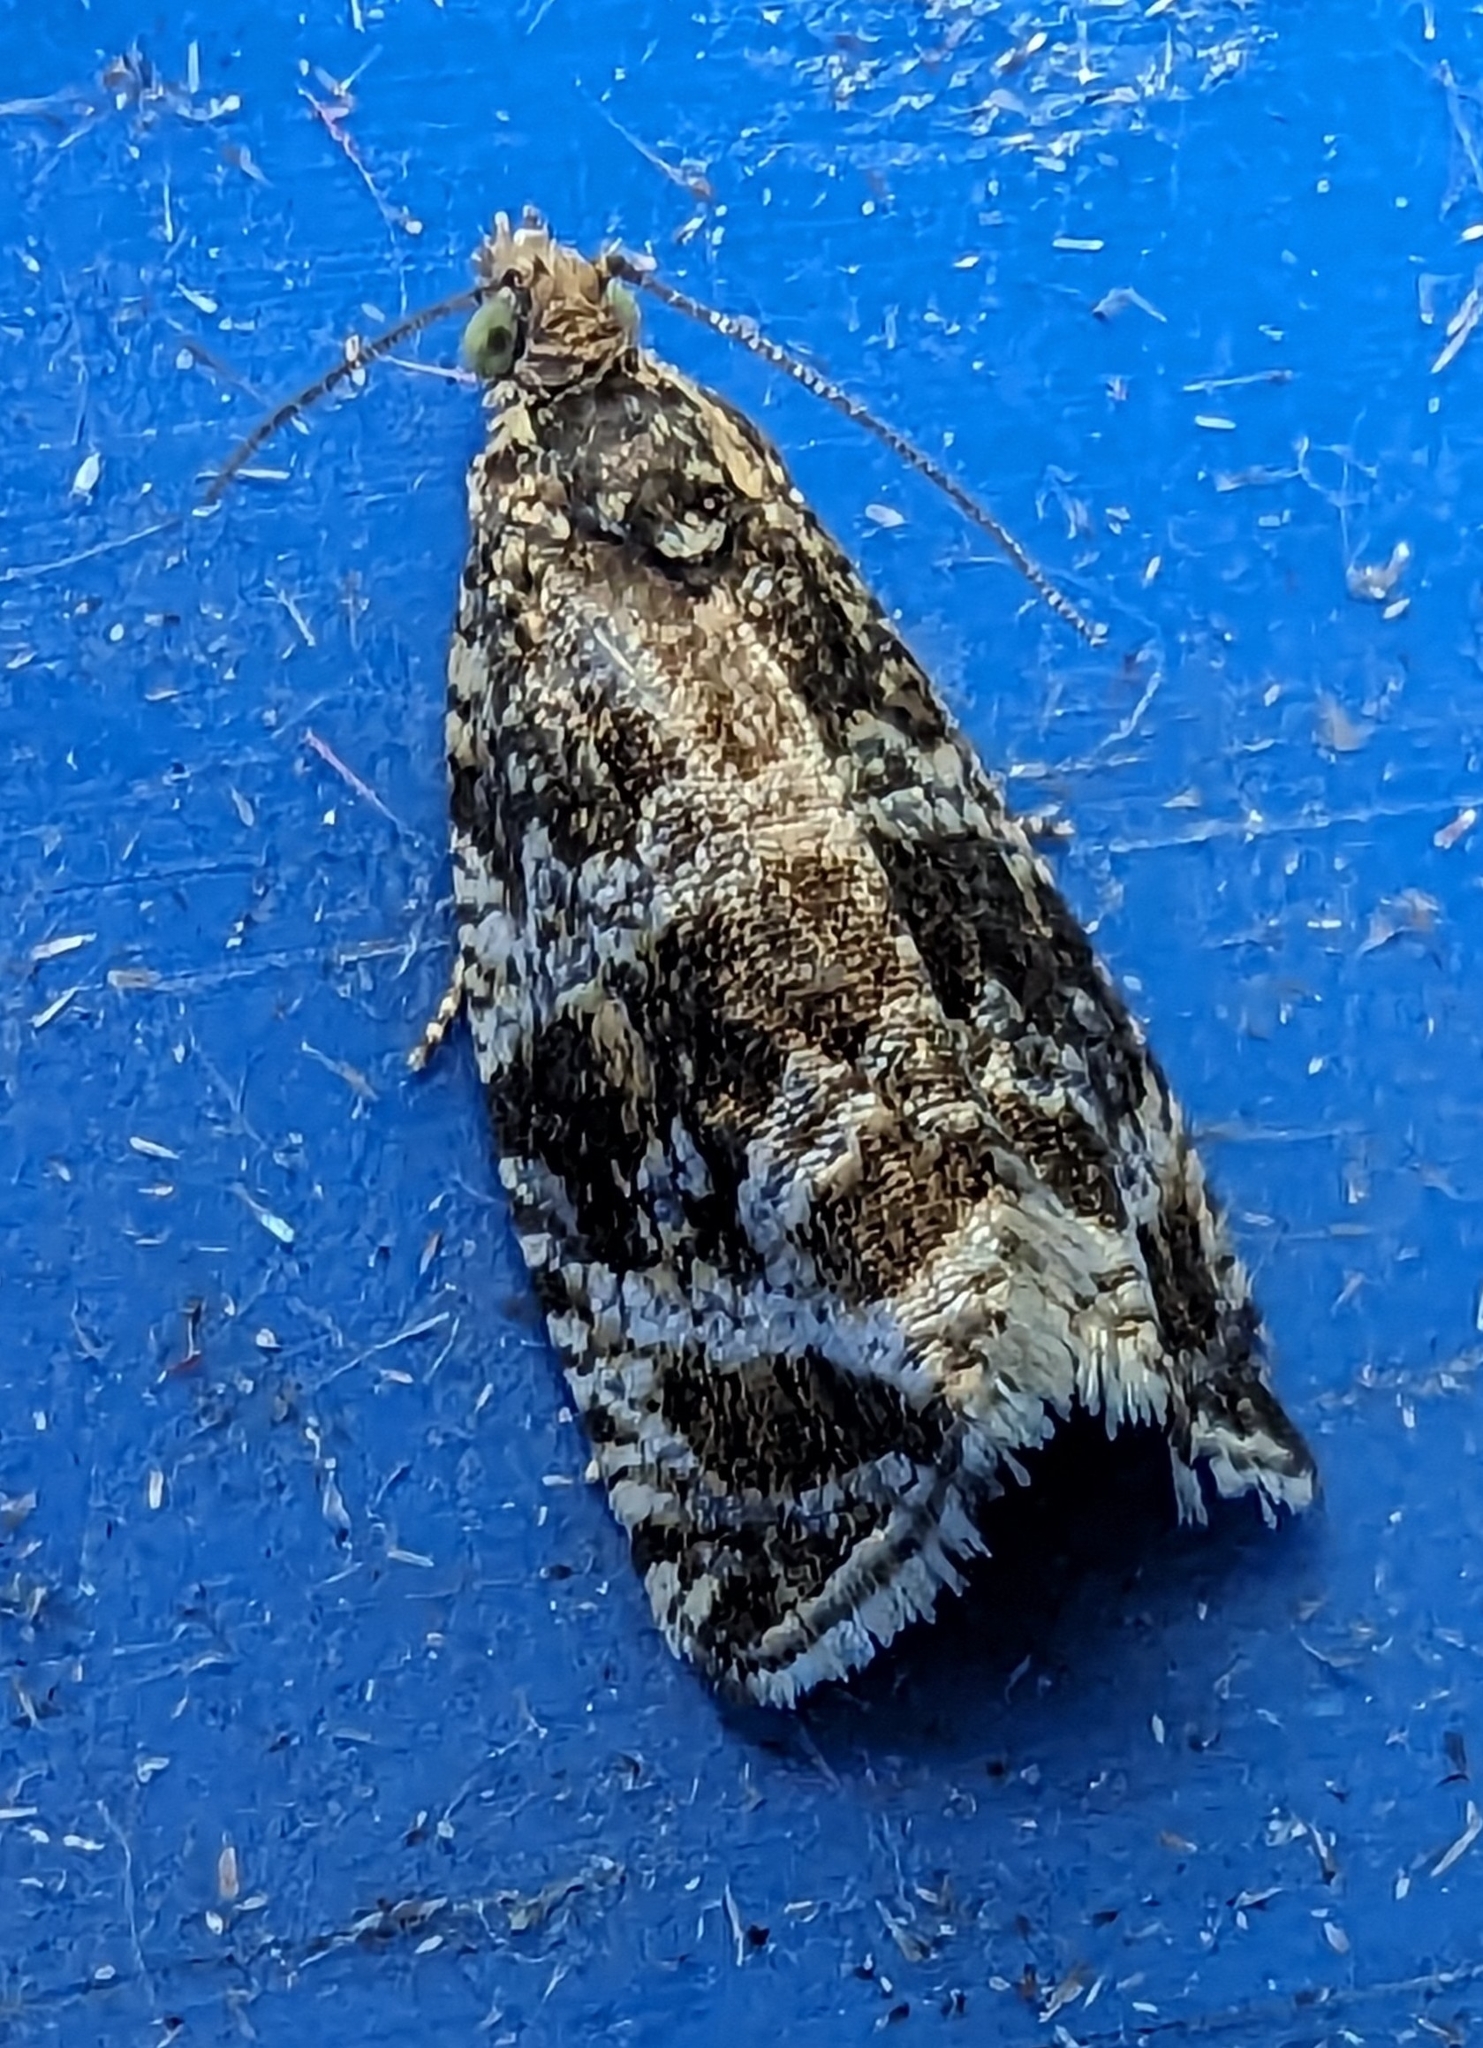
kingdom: Animalia
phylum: Arthropoda
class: Insecta
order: Lepidoptera
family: Tortricidae
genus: Syricoris
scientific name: Syricoris lacunana
